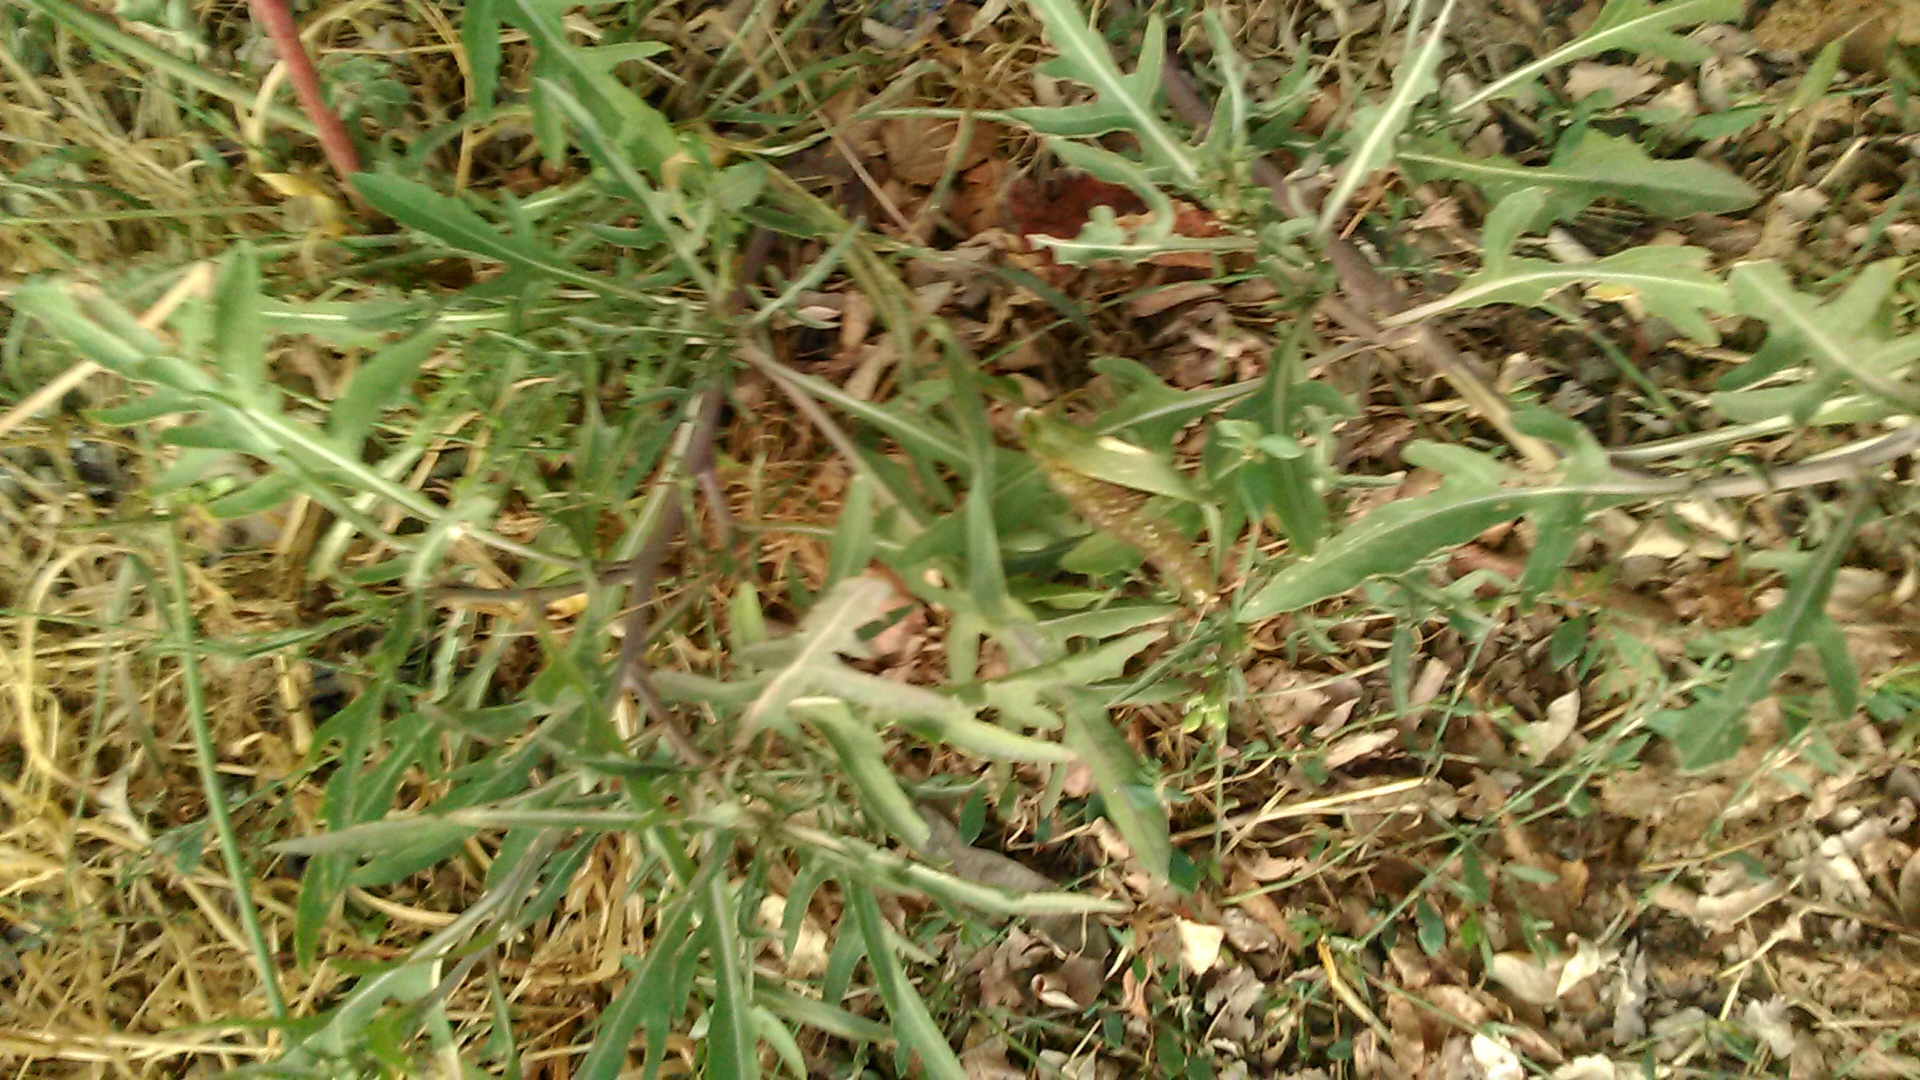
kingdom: Plantae
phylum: Tracheophyta
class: Magnoliopsida
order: Brassicales
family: Brassicaceae
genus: Diplotaxis
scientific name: Diplotaxis tenuifolia
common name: Perennial wall-rocket
